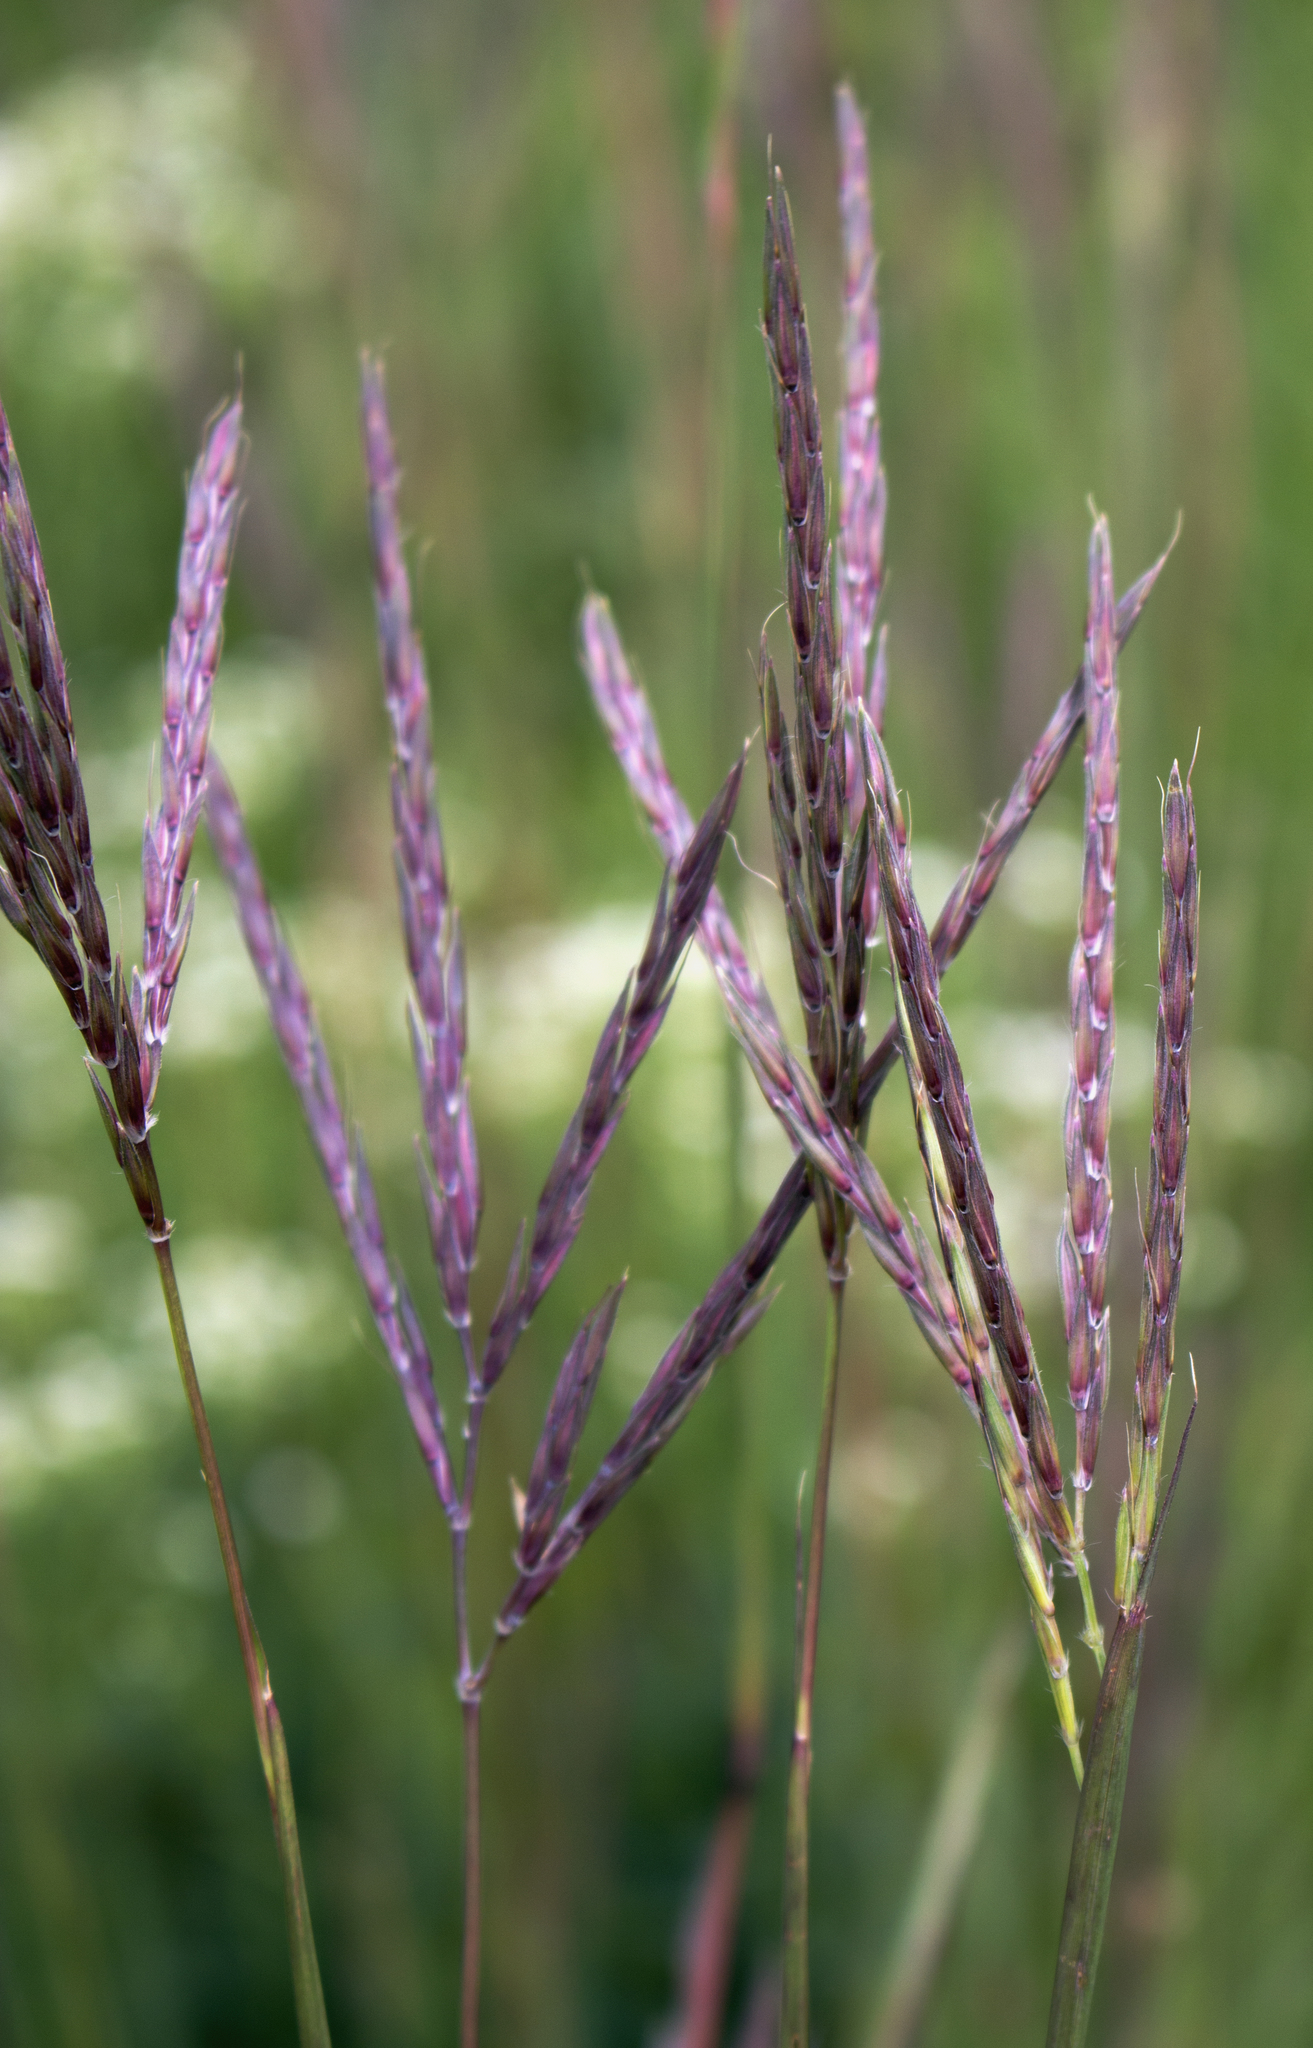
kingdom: Plantae
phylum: Tracheophyta
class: Liliopsida
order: Poales
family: Poaceae
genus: Andropogon
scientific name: Andropogon gerardi
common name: Big bluestem
